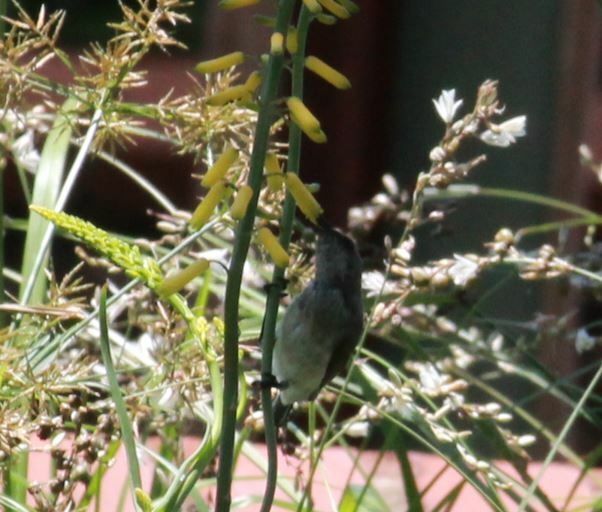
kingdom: Animalia
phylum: Chordata
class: Aves
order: Passeriformes
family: Nectariniidae
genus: Cinnyris
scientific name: Cinnyris talatala
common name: White-bellied sunbird
